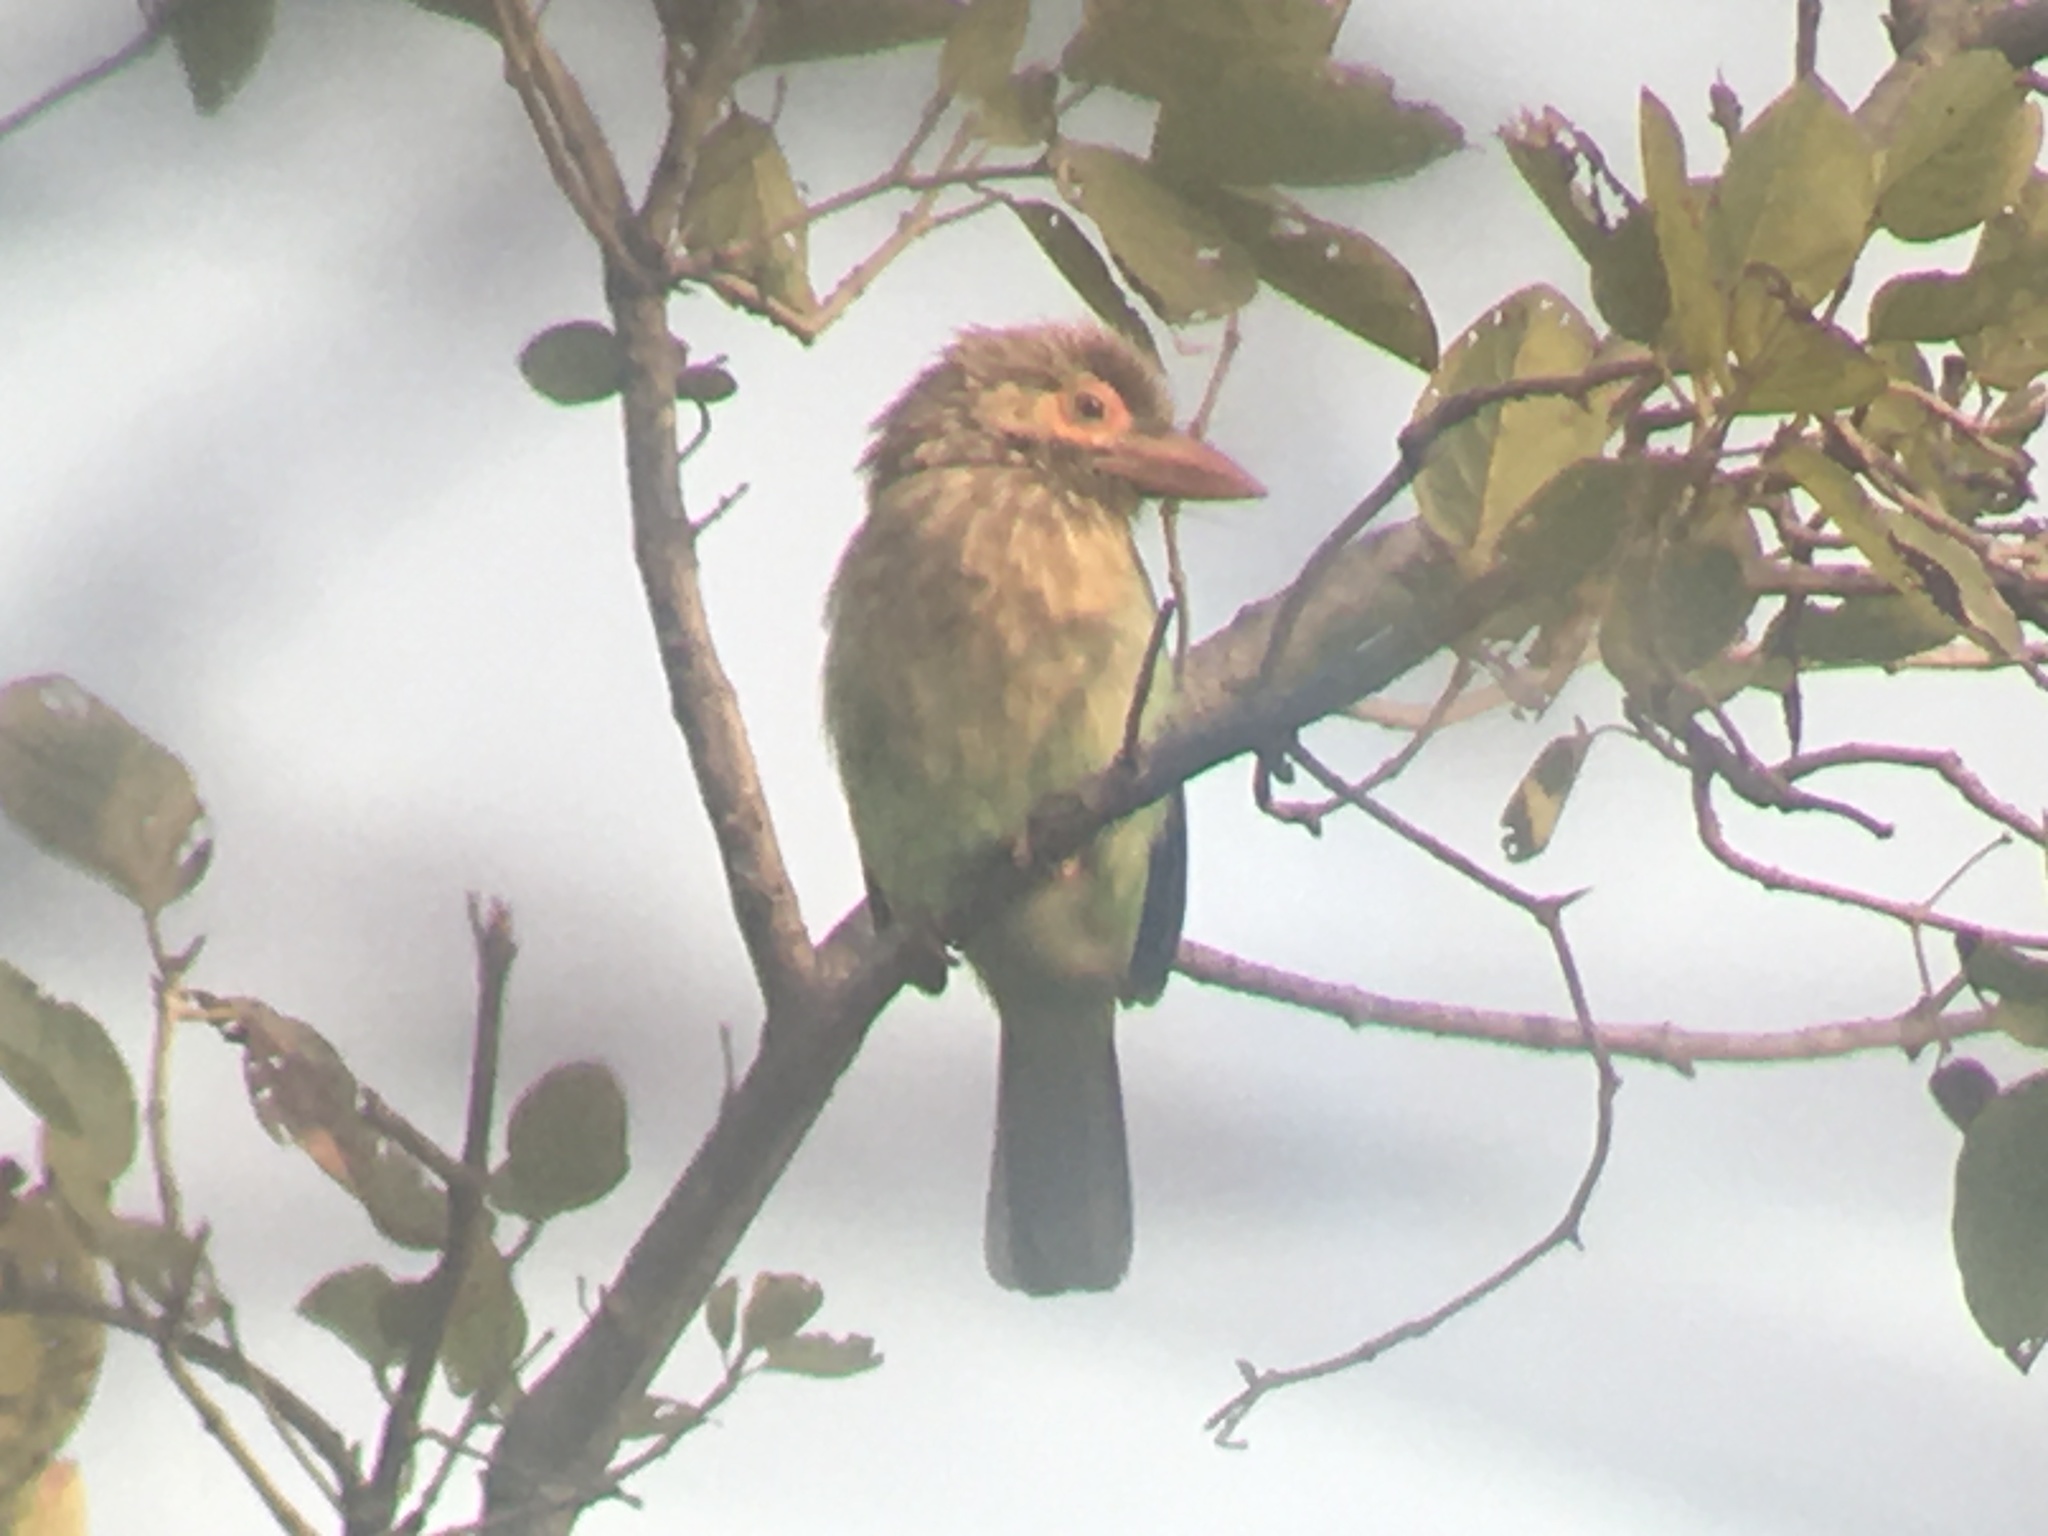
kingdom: Animalia
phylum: Chordata
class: Aves
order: Piciformes
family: Megalaimidae
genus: Psilopogon
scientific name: Psilopogon zeylanicus
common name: Brown-headed barbet
